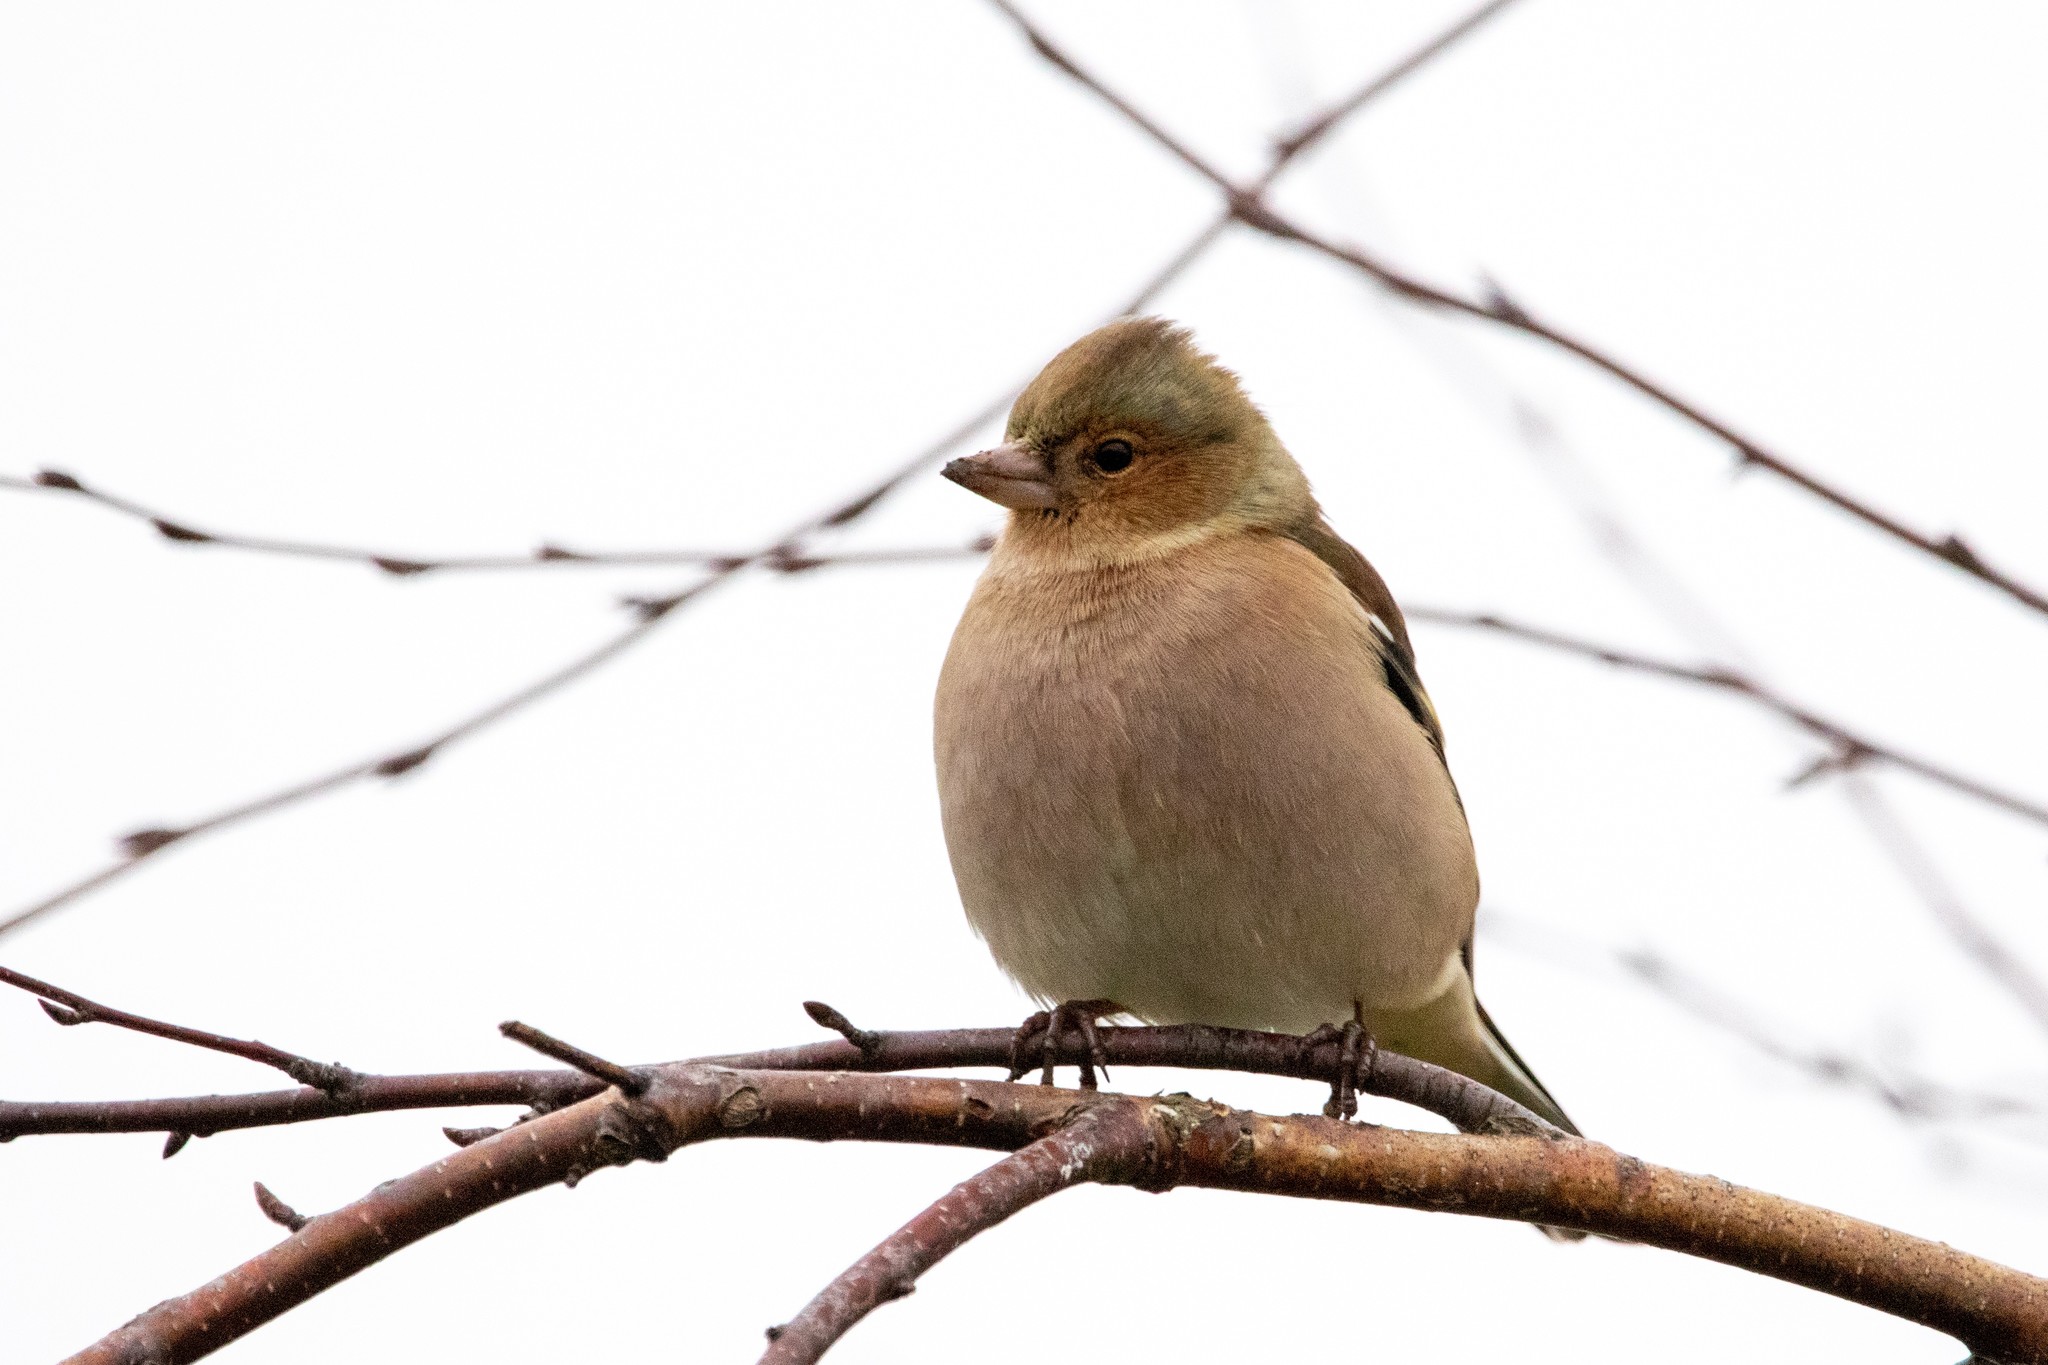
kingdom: Animalia
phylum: Chordata
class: Aves
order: Passeriformes
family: Fringillidae
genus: Fringilla
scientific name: Fringilla coelebs
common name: Common chaffinch
